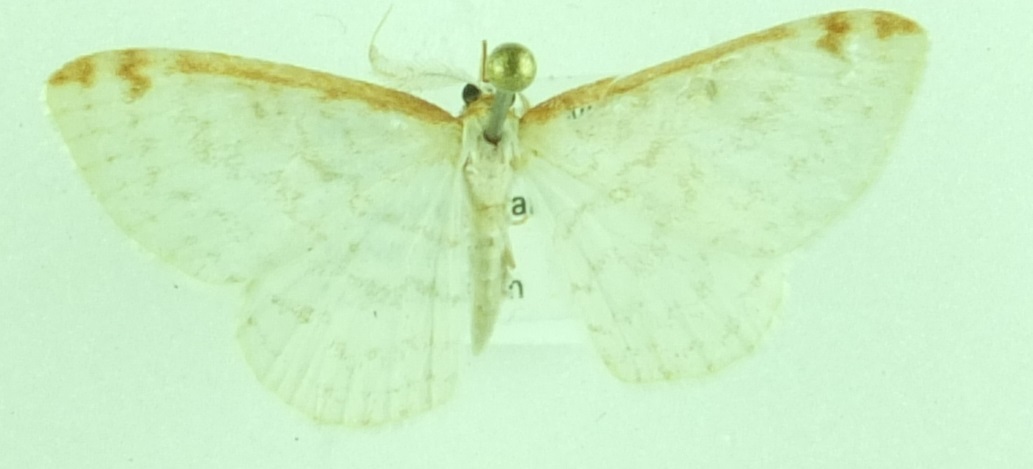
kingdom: Animalia
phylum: Arthropoda
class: Insecta
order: Lepidoptera
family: Geometridae
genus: Epiphryne
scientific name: Epiphryne undosata
